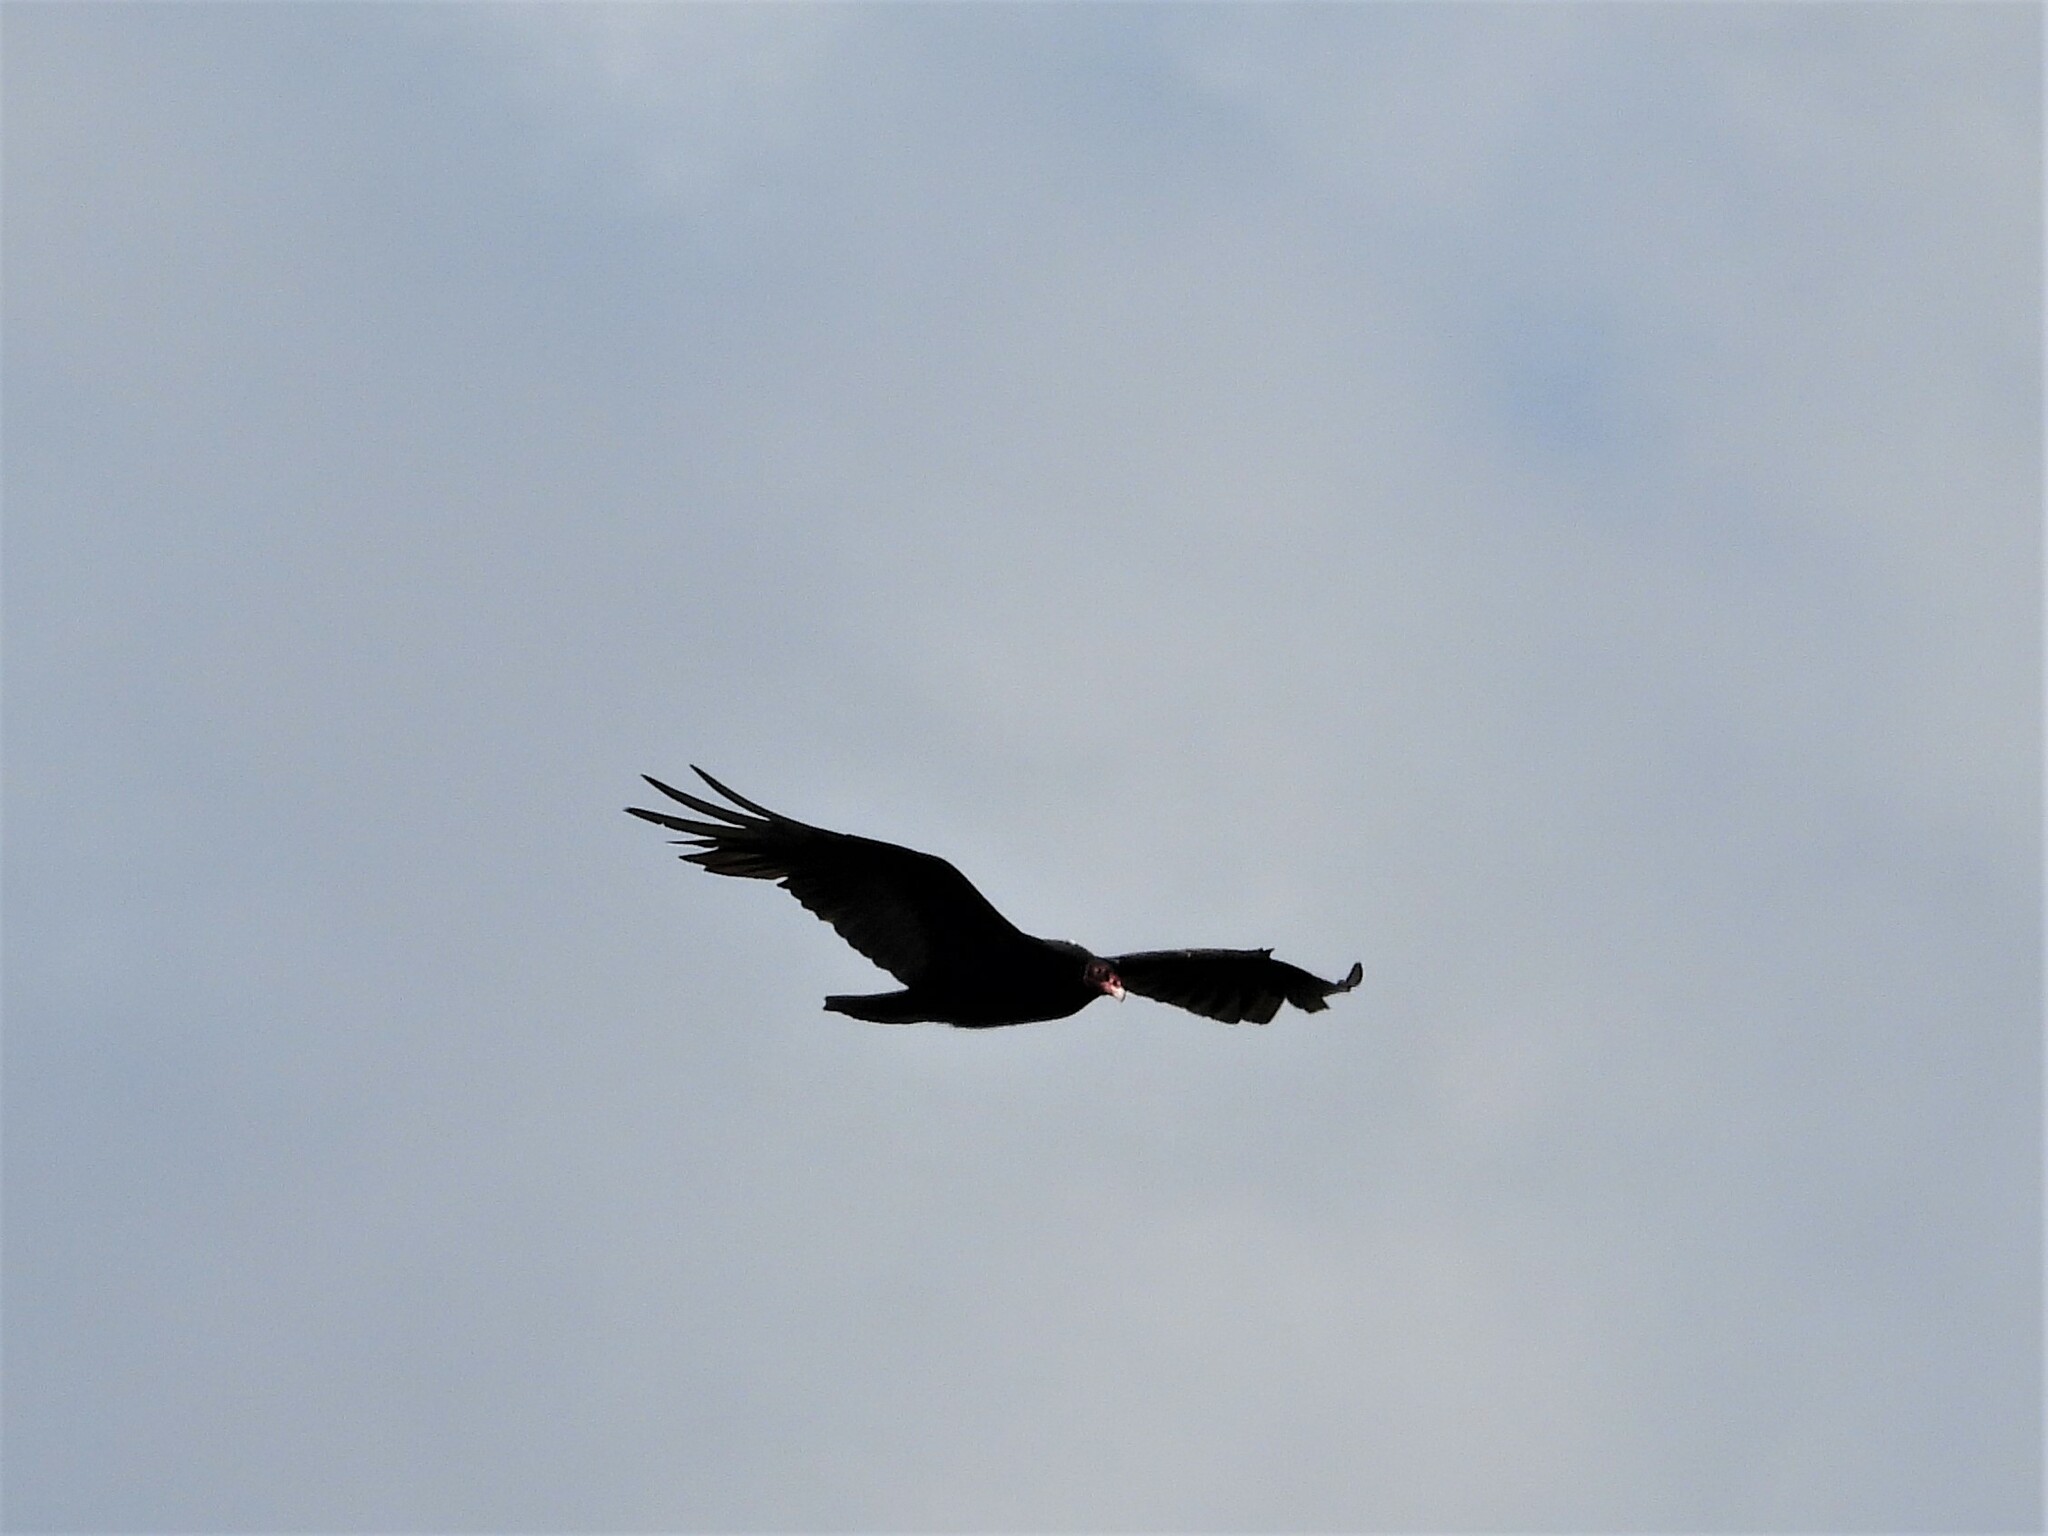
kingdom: Animalia
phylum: Chordata
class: Aves
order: Accipitriformes
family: Cathartidae
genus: Cathartes
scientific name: Cathartes aura
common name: Turkey vulture
